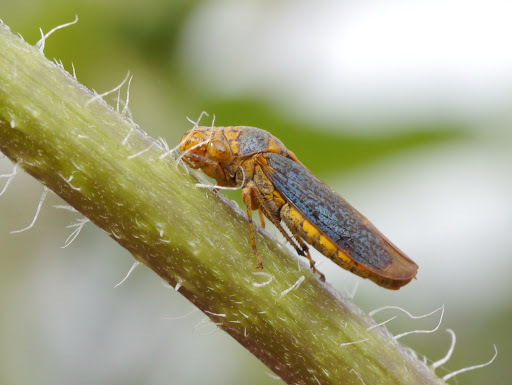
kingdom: Animalia
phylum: Arthropoda
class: Insecta
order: Hemiptera
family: Cicadellidae
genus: Oncometopia
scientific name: Oncometopia orbona
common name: Broad-headed sharpshooter
